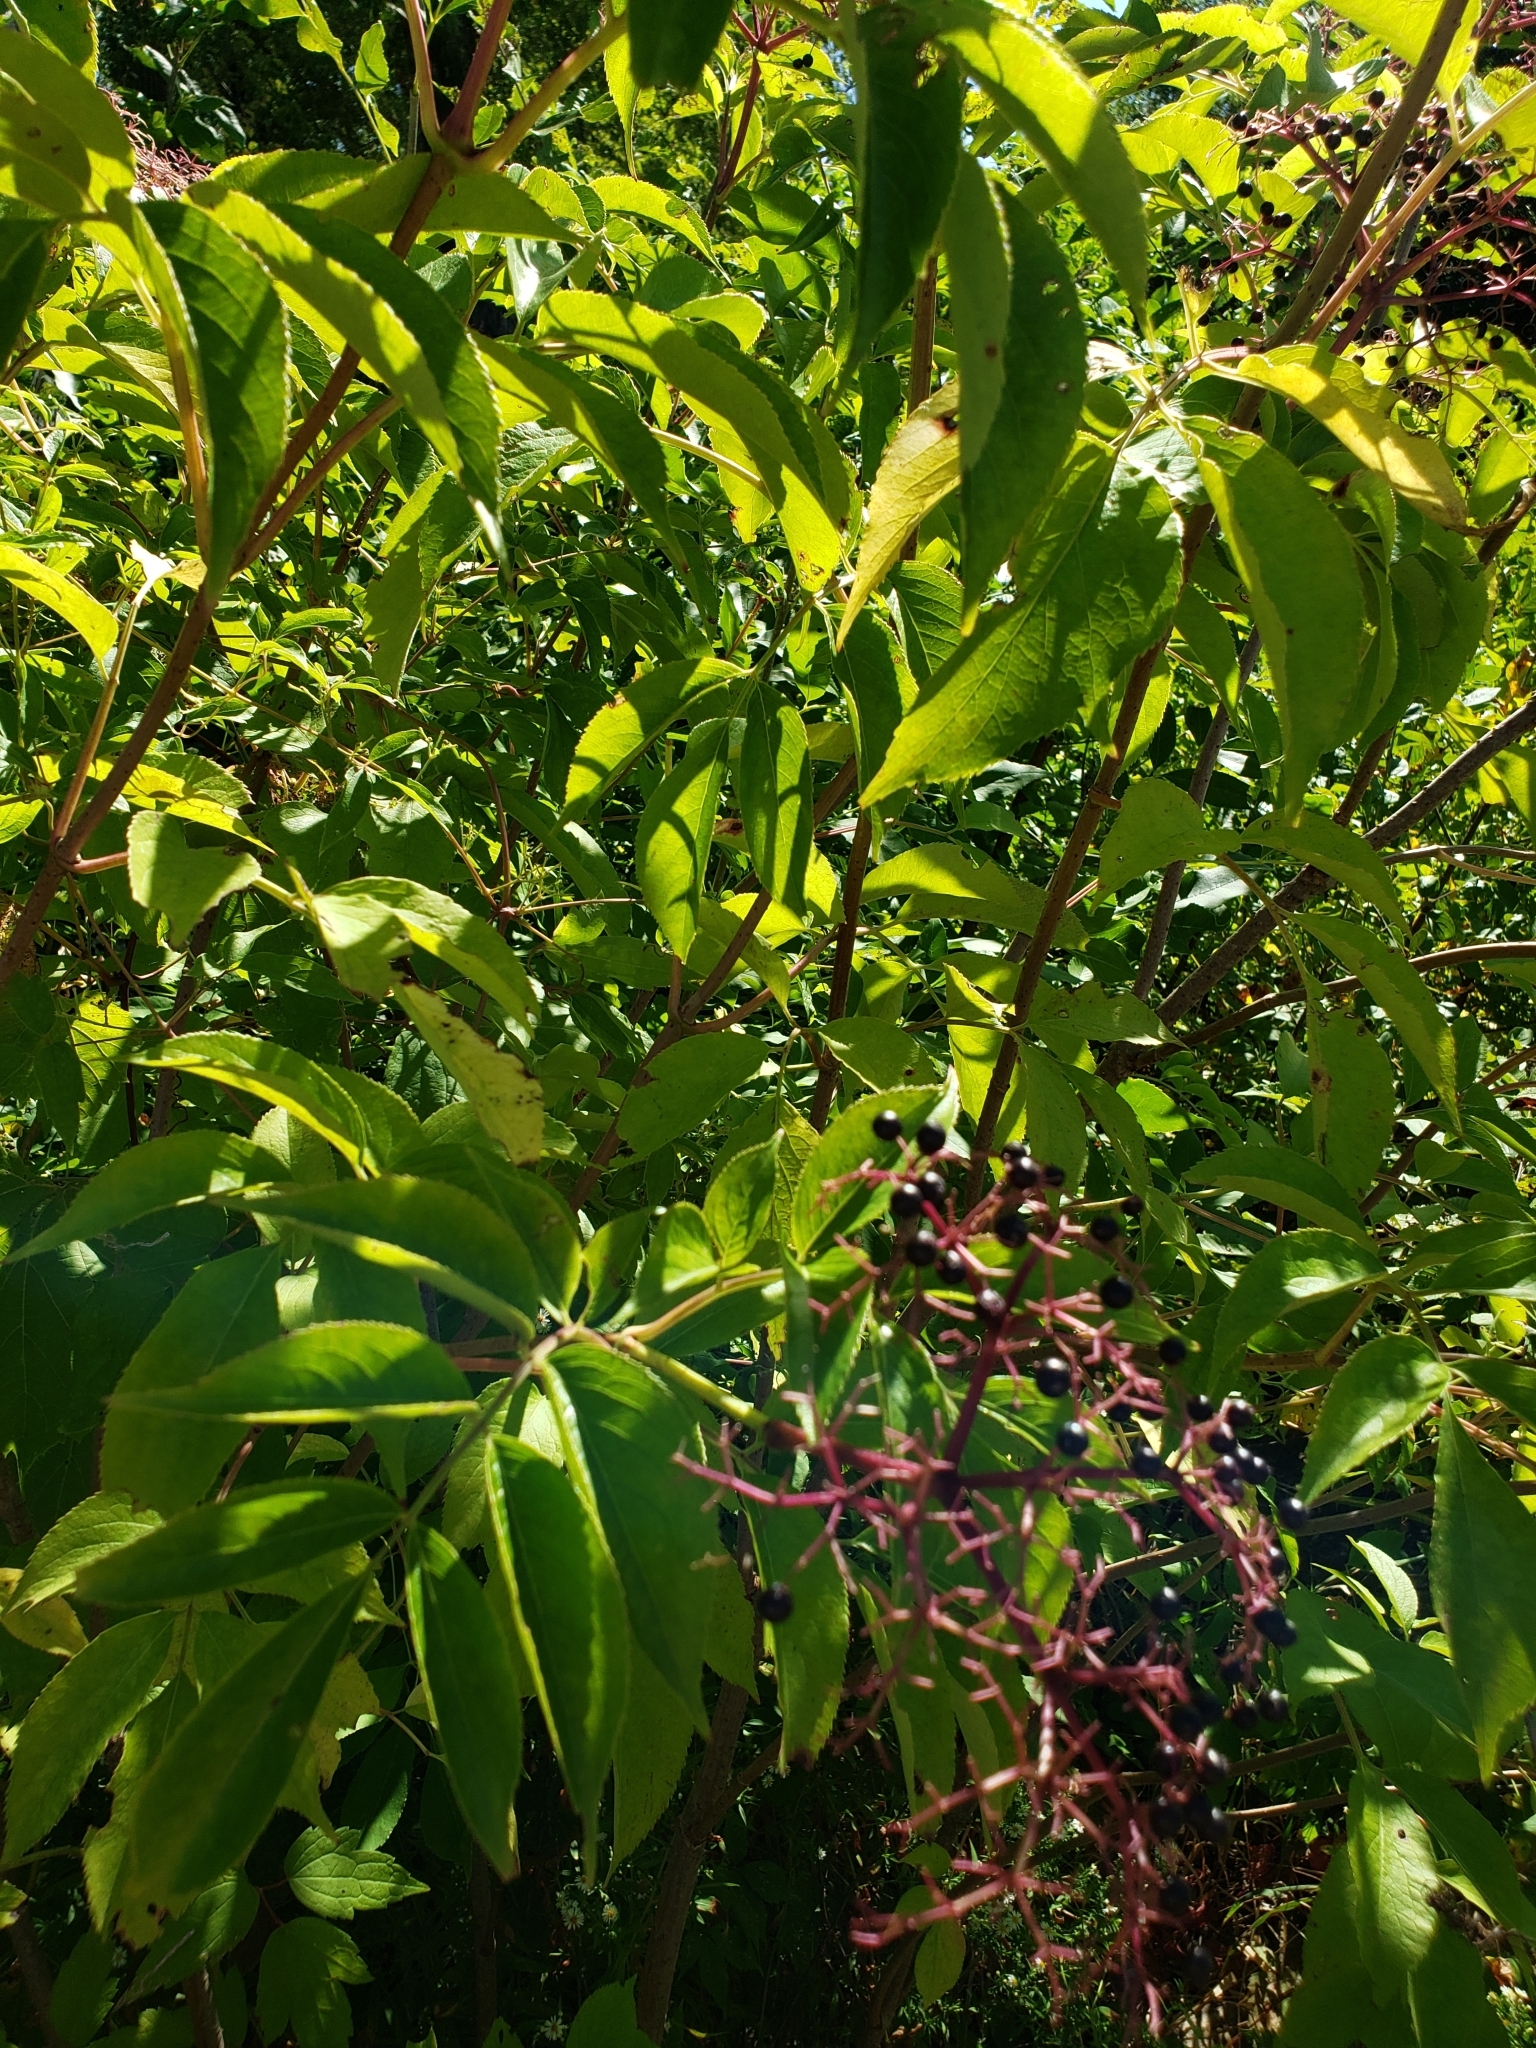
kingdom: Plantae
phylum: Tracheophyta
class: Magnoliopsida
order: Dipsacales
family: Viburnaceae
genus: Sambucus
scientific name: Sambucus canadensis
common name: American elder
